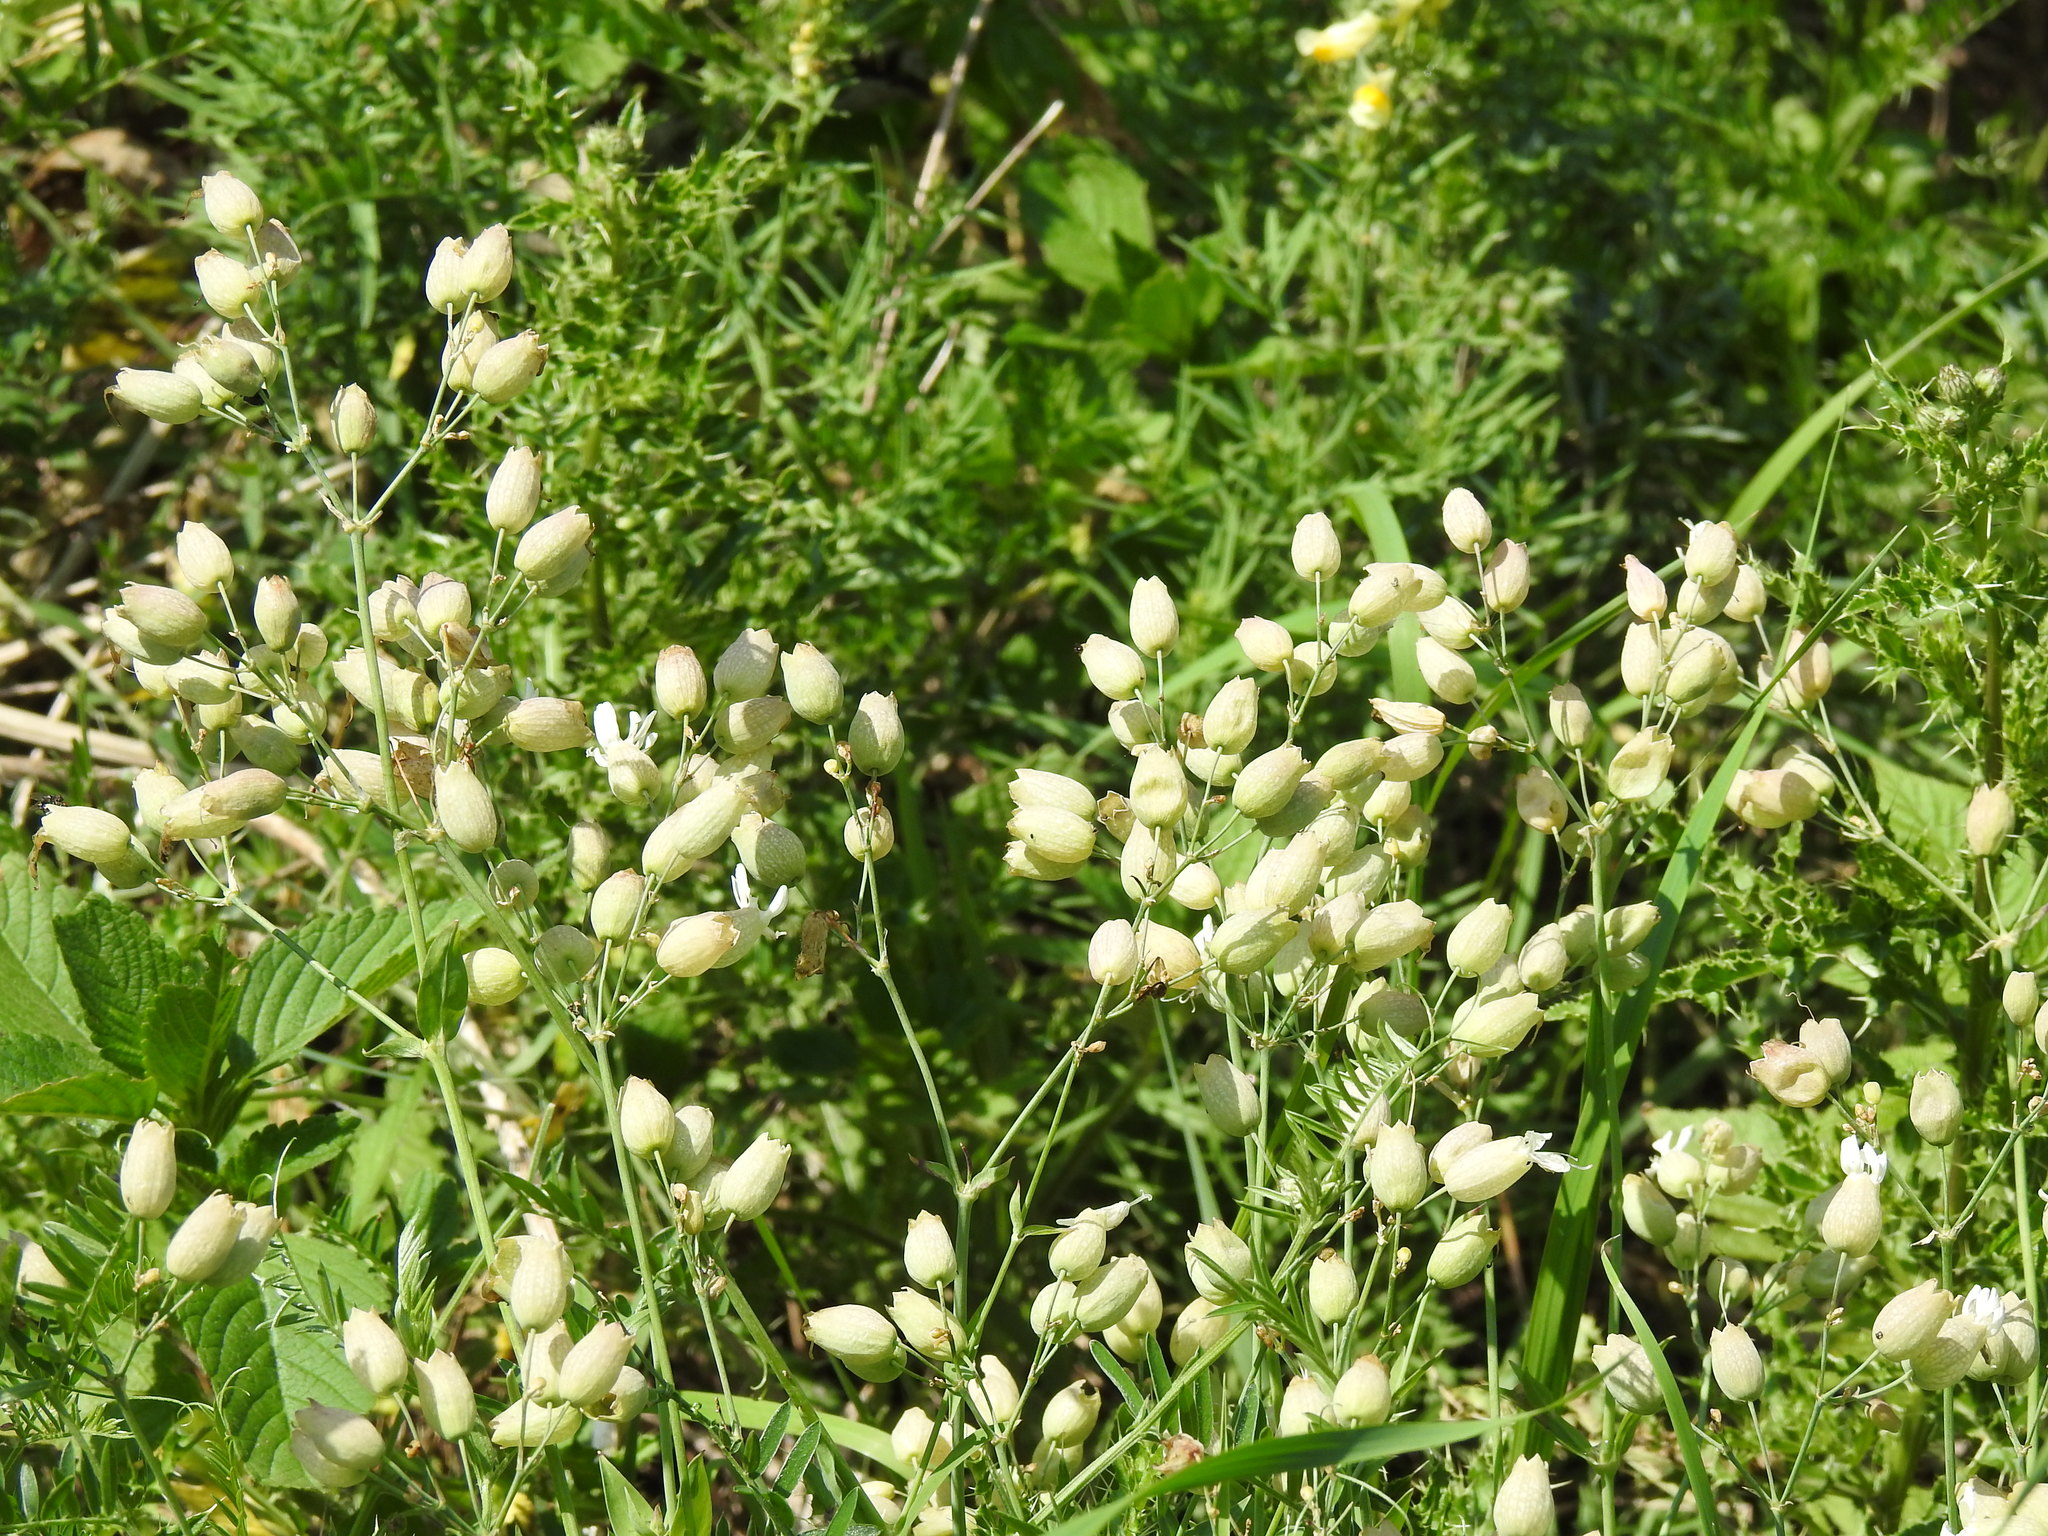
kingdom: Plantae
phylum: Tracheophyta
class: Magnoliopsida
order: Caryophyllales
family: Caryophyllaceae
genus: Silene
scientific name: Silene vulgaris
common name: Bladder campion
